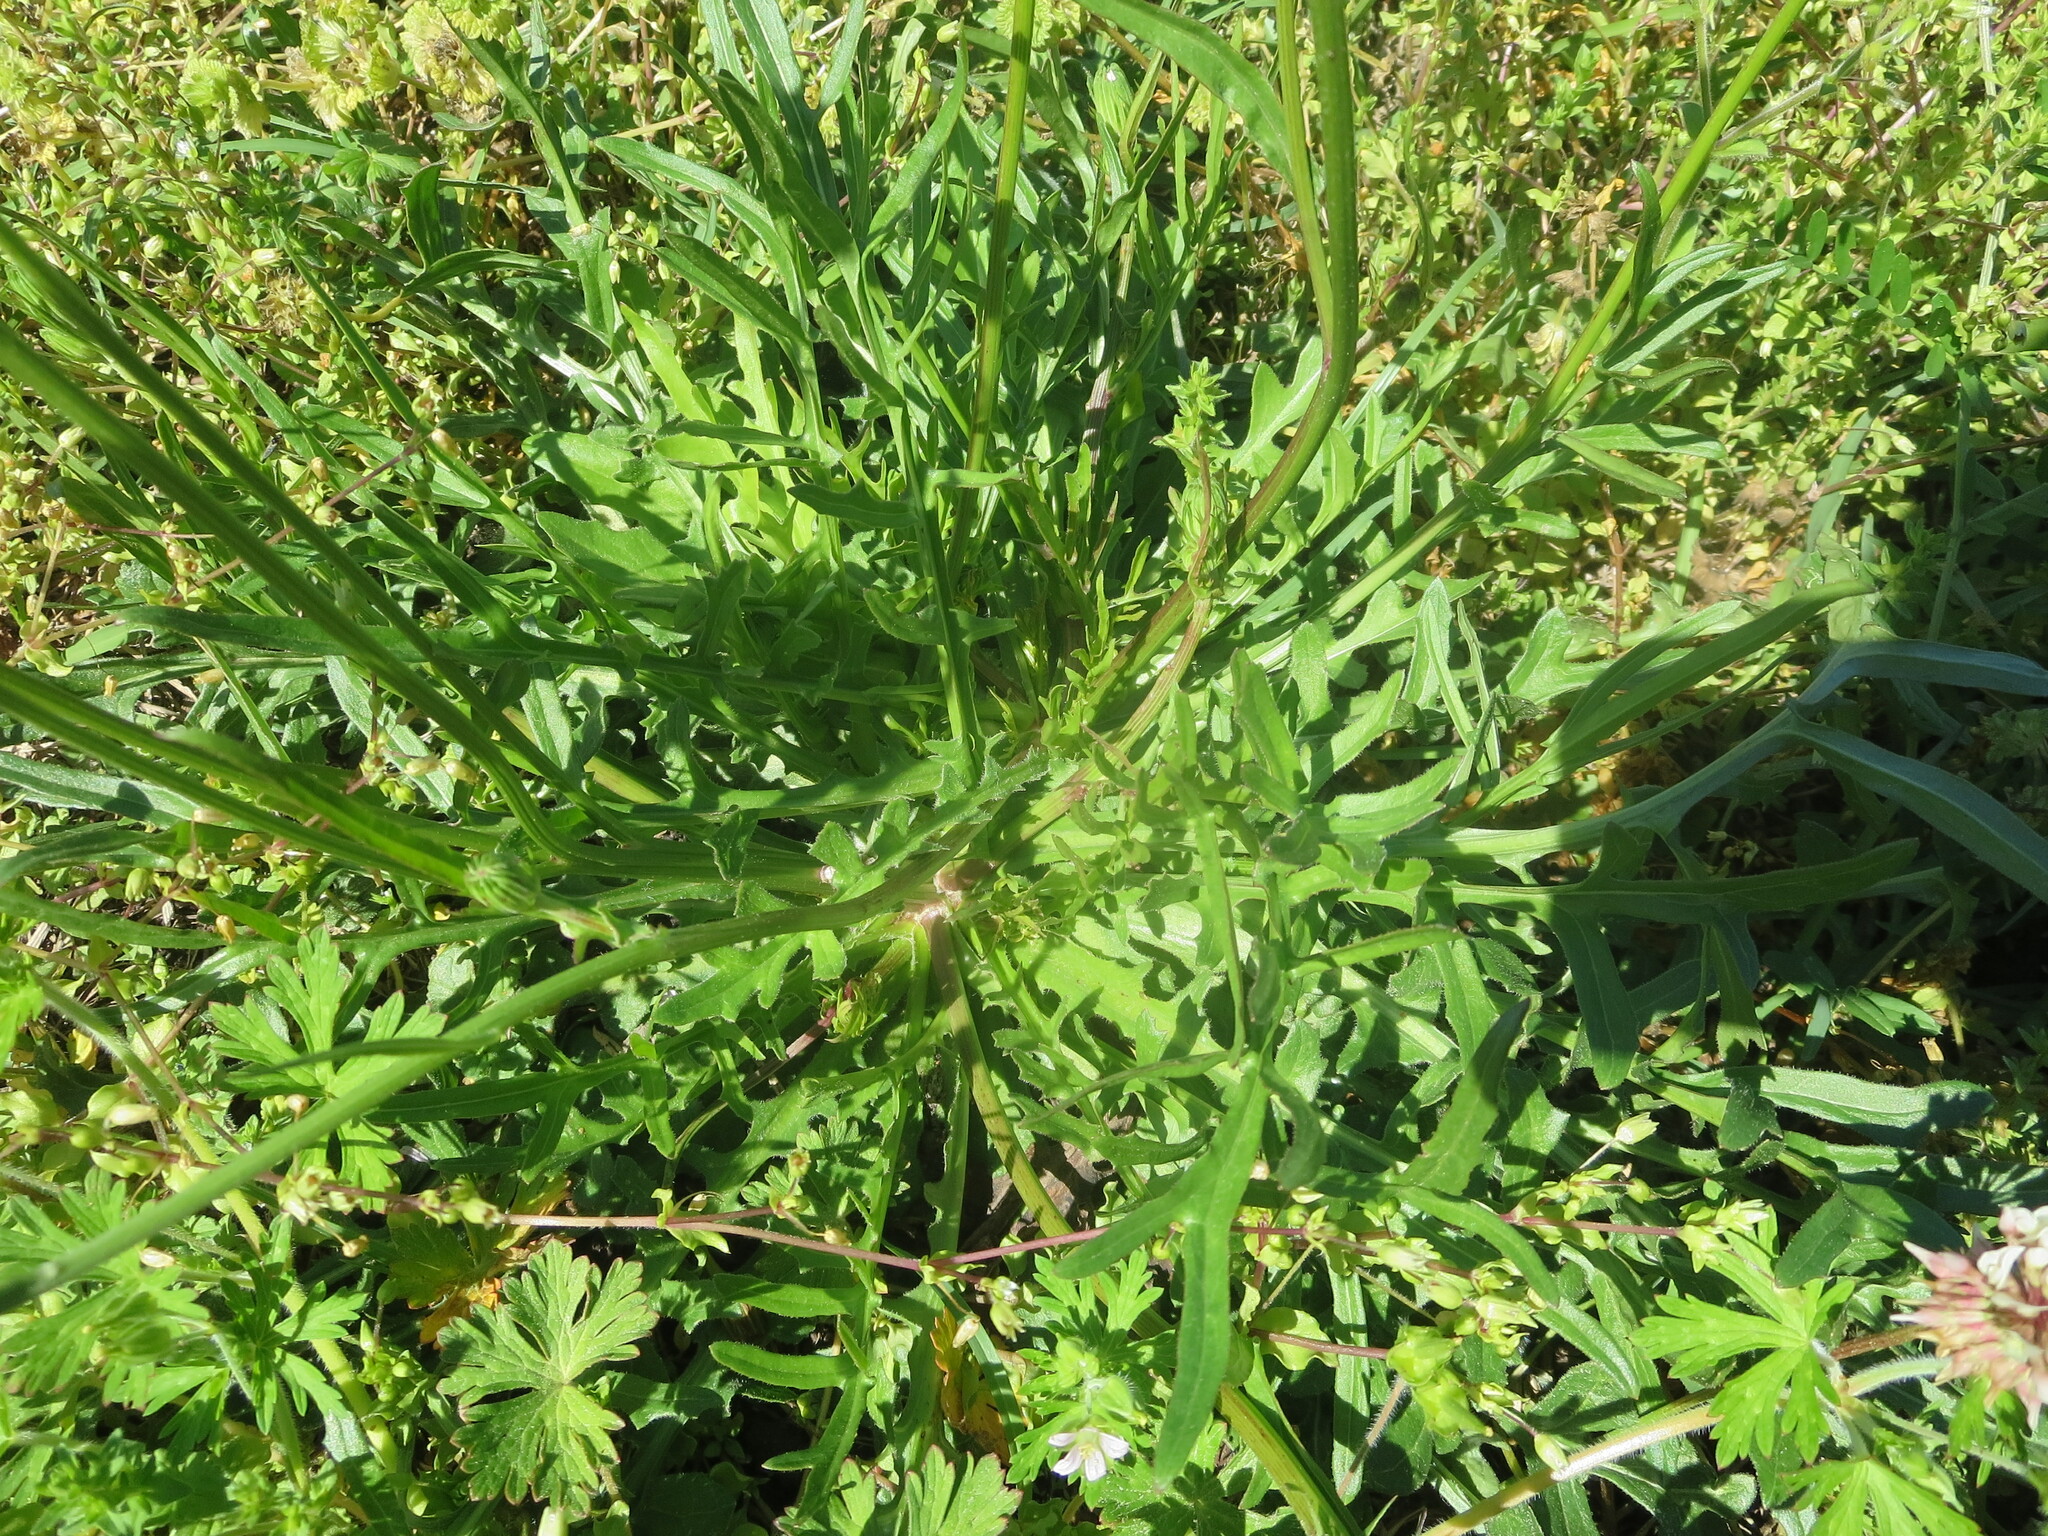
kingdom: Plantae
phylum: Tracheophyta
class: Magnoliopsida
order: Asterales
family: Asteraceae
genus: Pyrrhopappus
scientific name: Pyrrhopappus carolinianus
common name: Carolina desert-chicory
